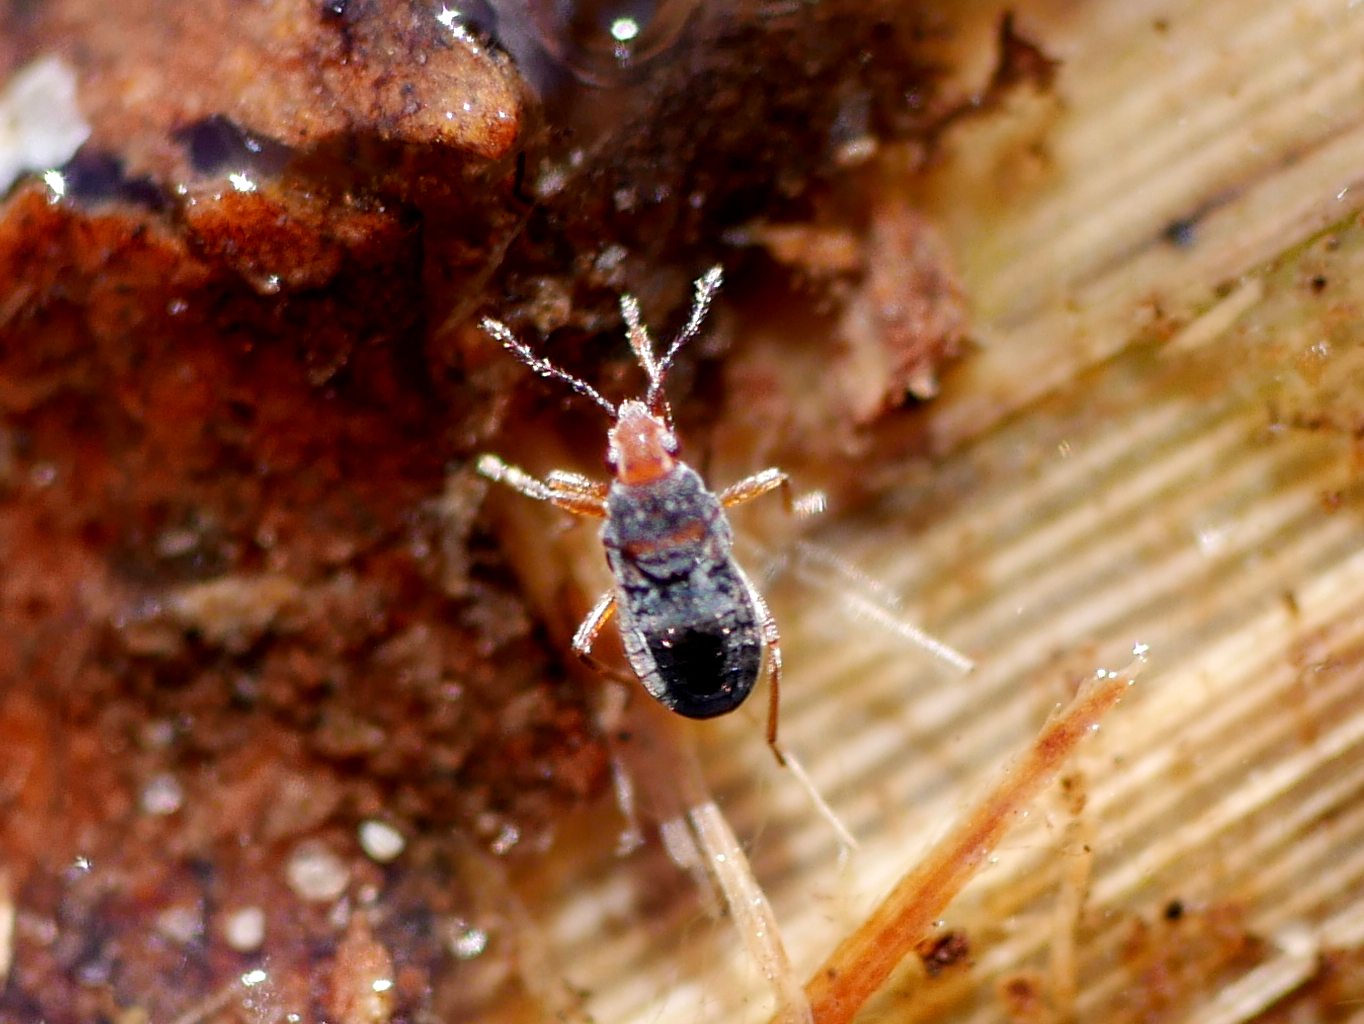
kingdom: Animalia
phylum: Arthropoda
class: Insecta
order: Hemiptera
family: Hebridae
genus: Hebrus
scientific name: Hebrus ruficeps
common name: Sphagnum bug
